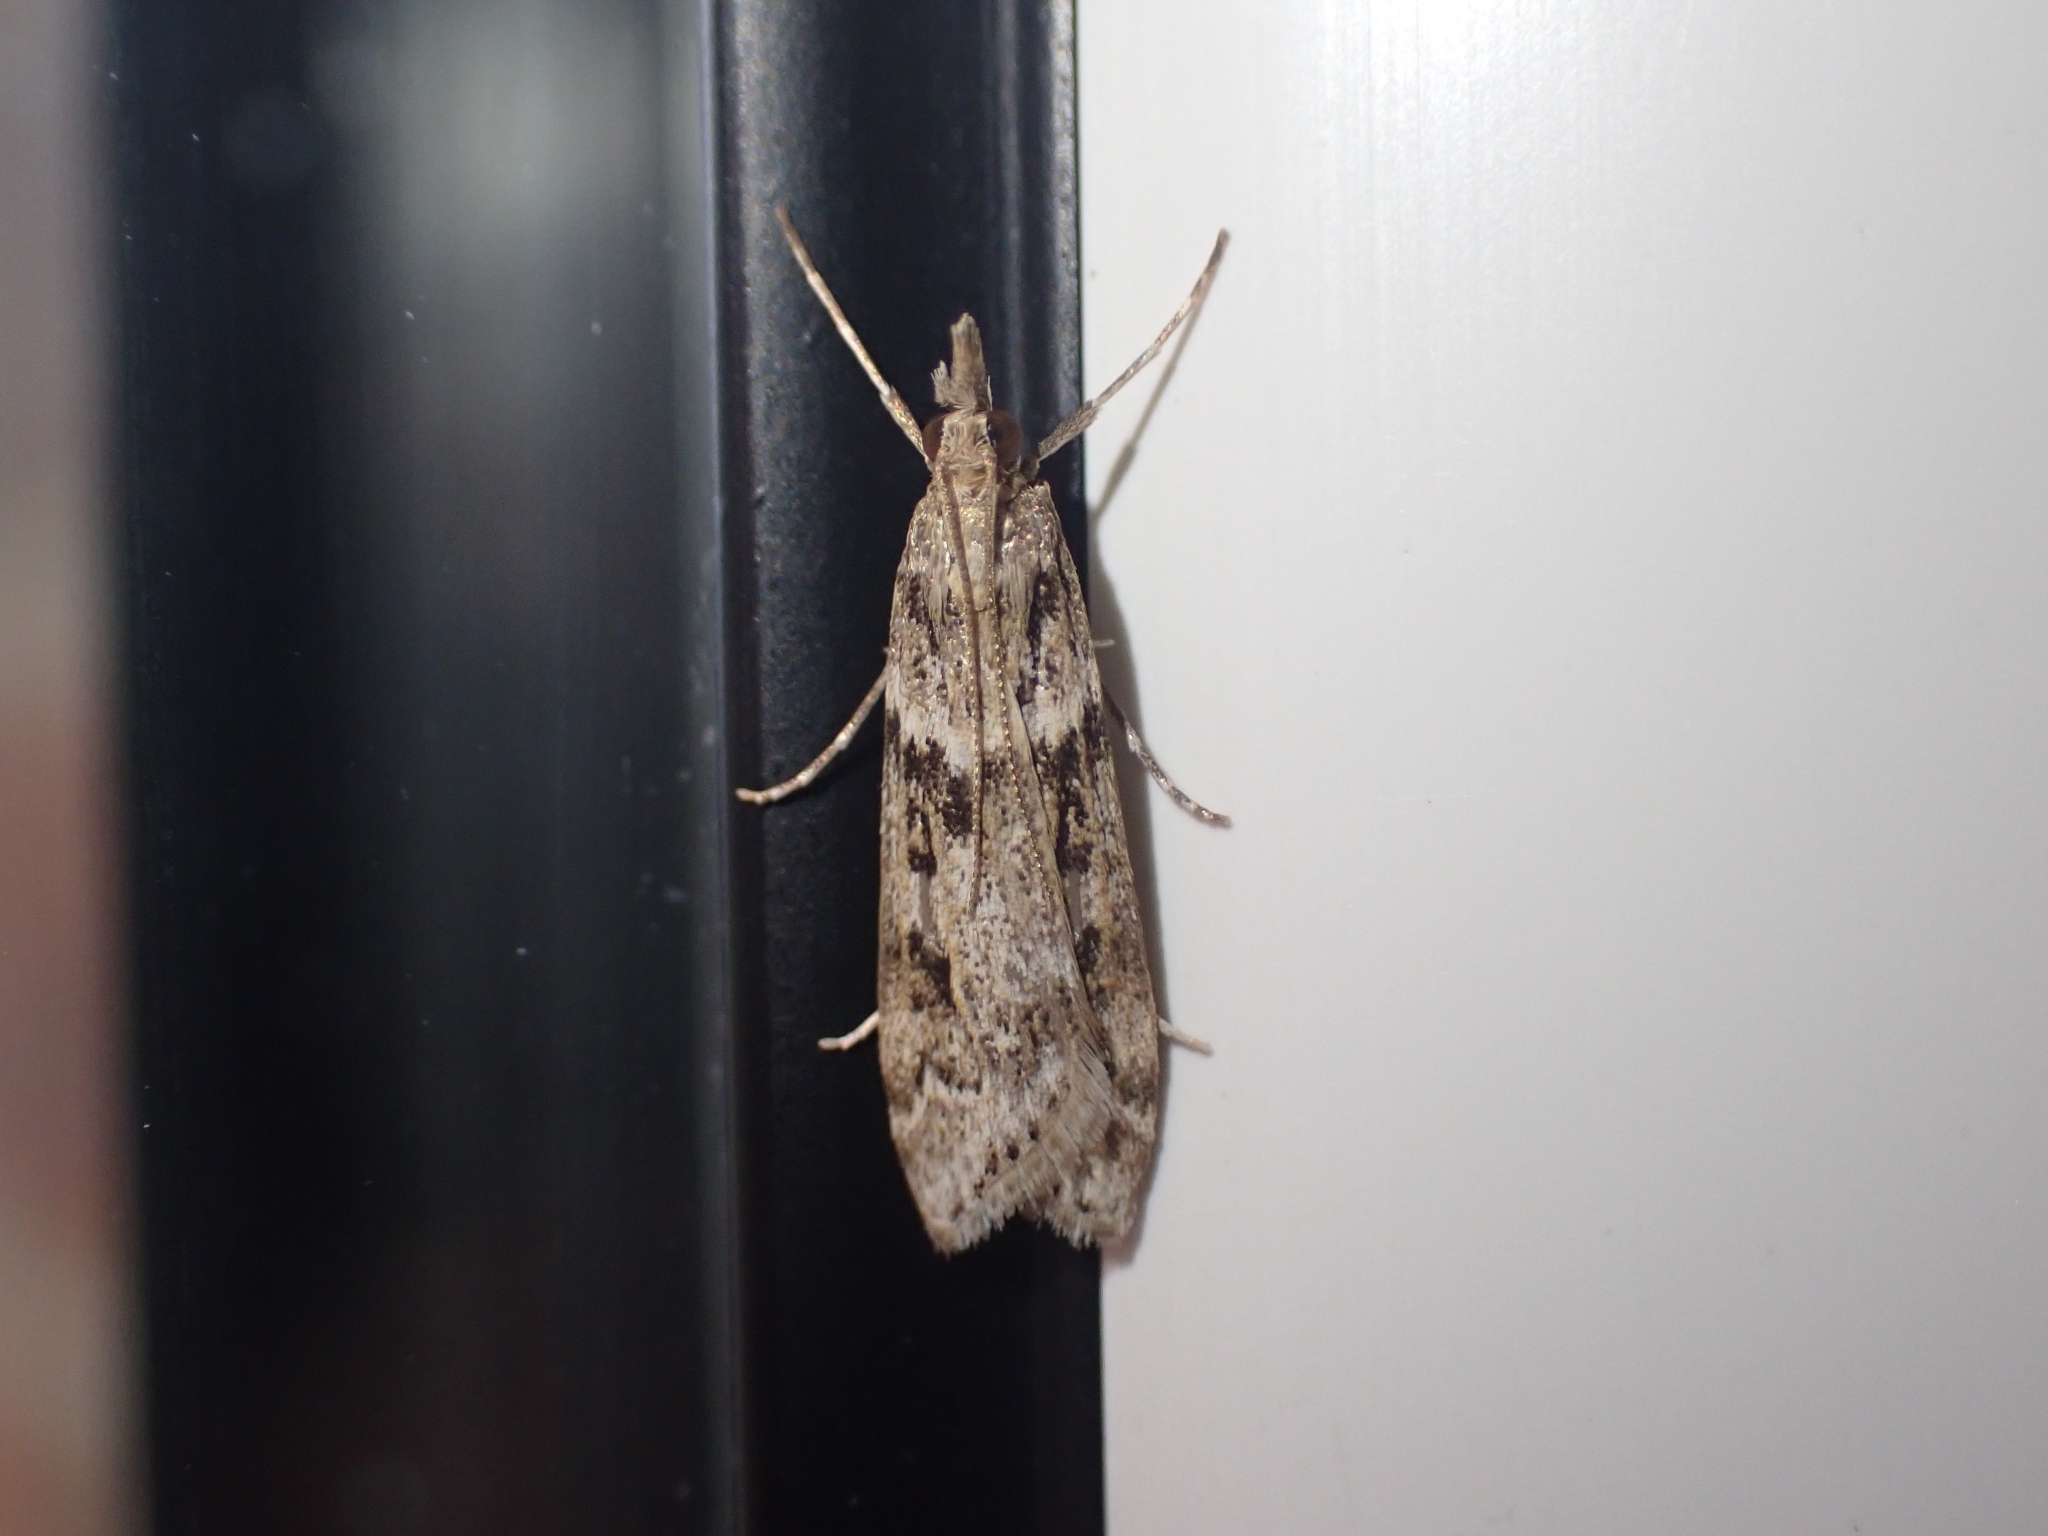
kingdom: Animalia
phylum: Arthropoda
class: Insecta
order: Lepidoptera
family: Crambidae
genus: Eudonia
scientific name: Eudonia angustea
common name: Narrow-winged grey
